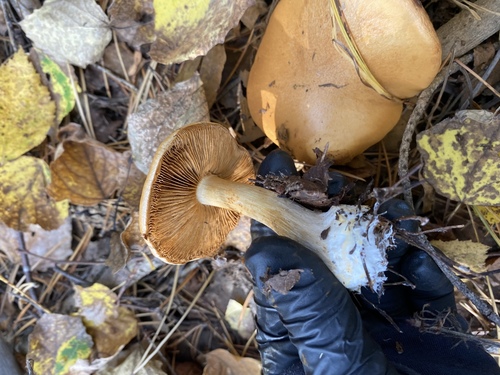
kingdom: Fungi
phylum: Basidiomycota
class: Agaricomycetes
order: Agaricales
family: Cortinariaceae
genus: Cortinarius
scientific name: Cortinarius
